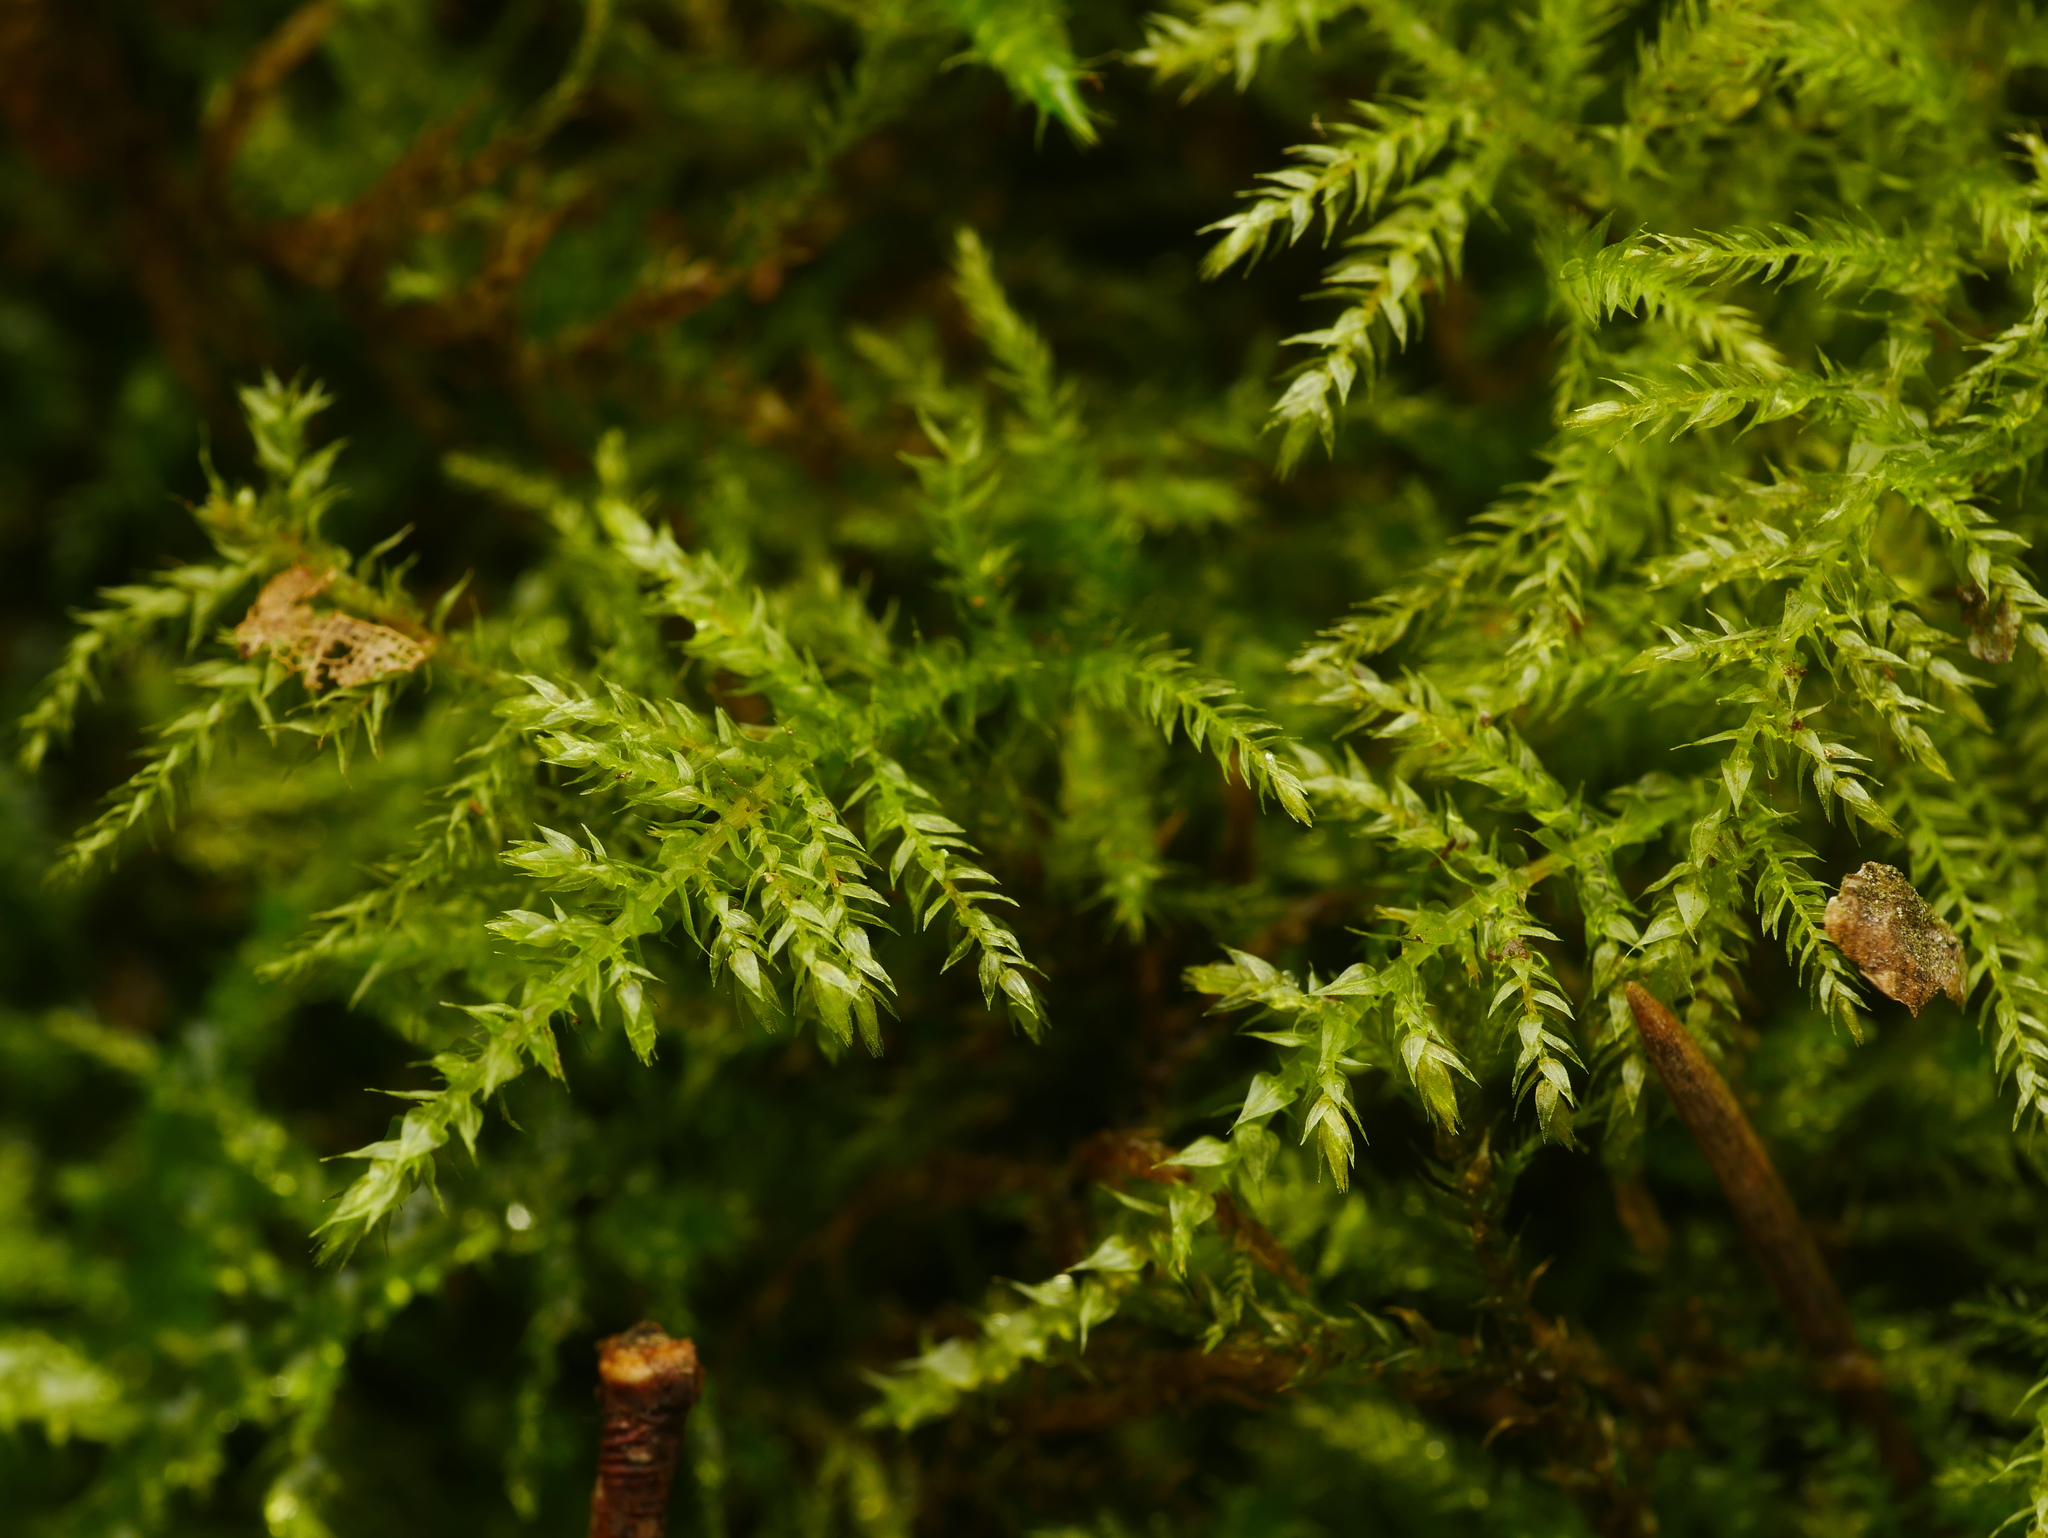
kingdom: Plantae
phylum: Bryophyta
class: Bryopsida
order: Hypnales
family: Brachytheciaceae
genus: Oxyrrhynchium
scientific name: Oxyrrhynchium hians
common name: Spreading beaked moss
